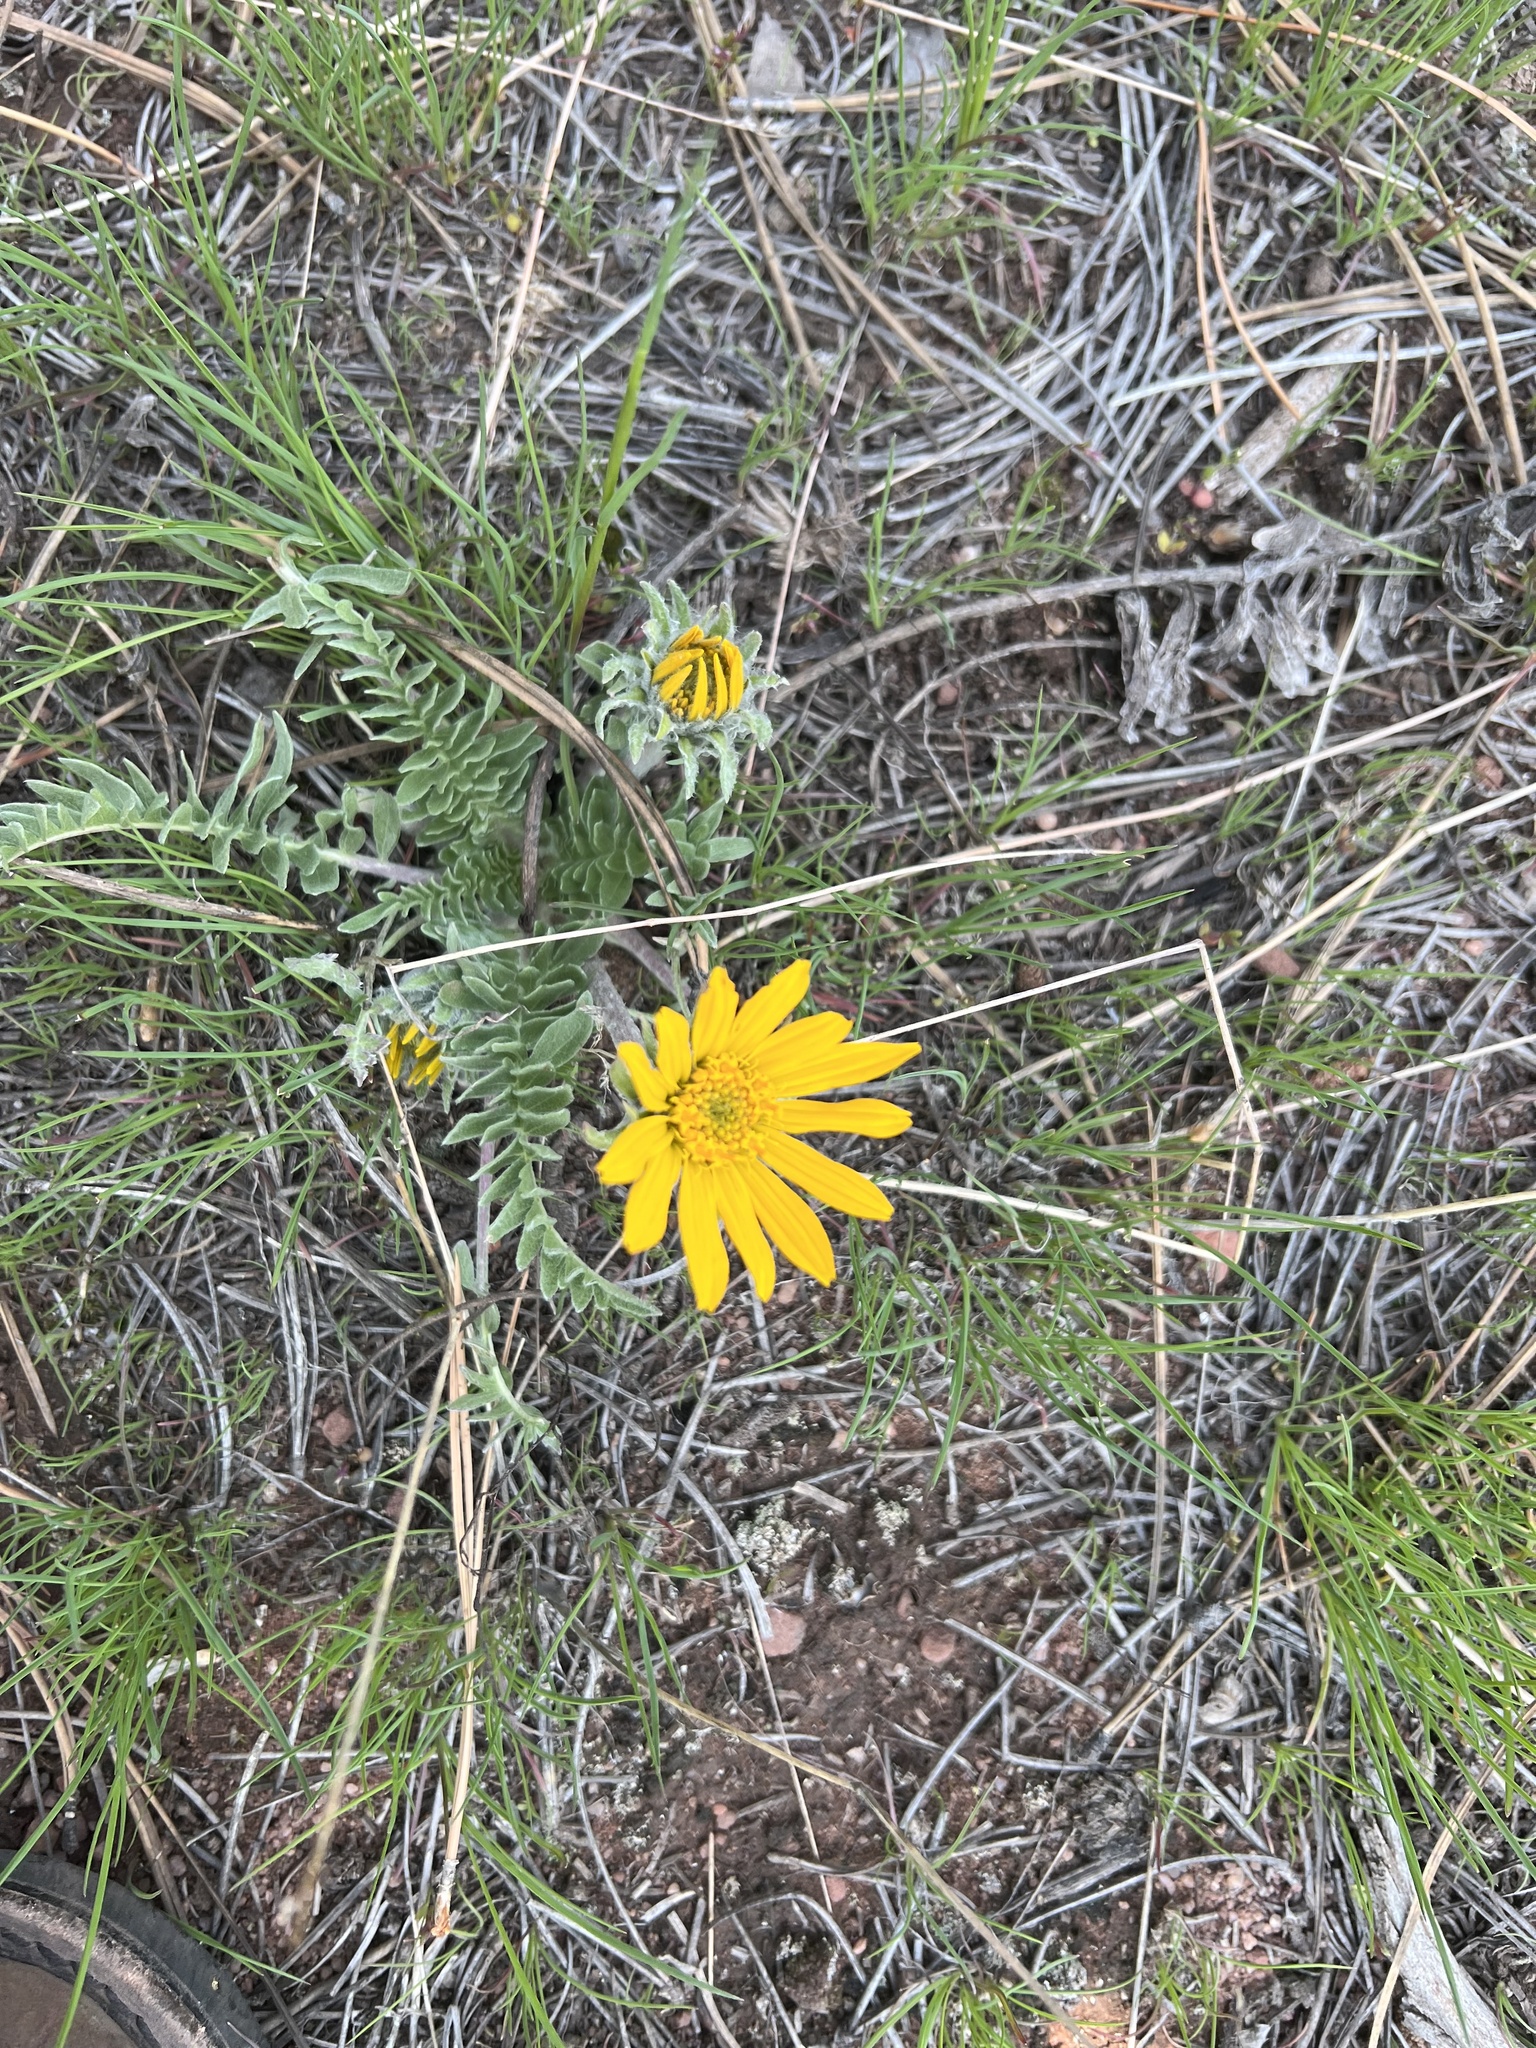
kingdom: Plantae
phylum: Tracheophyta
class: Magnoliopsida
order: Asterales
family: Asteraceae
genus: Balsamorhiza
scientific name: Balsamorhiza hookeri
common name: Hooker's balsamroot
